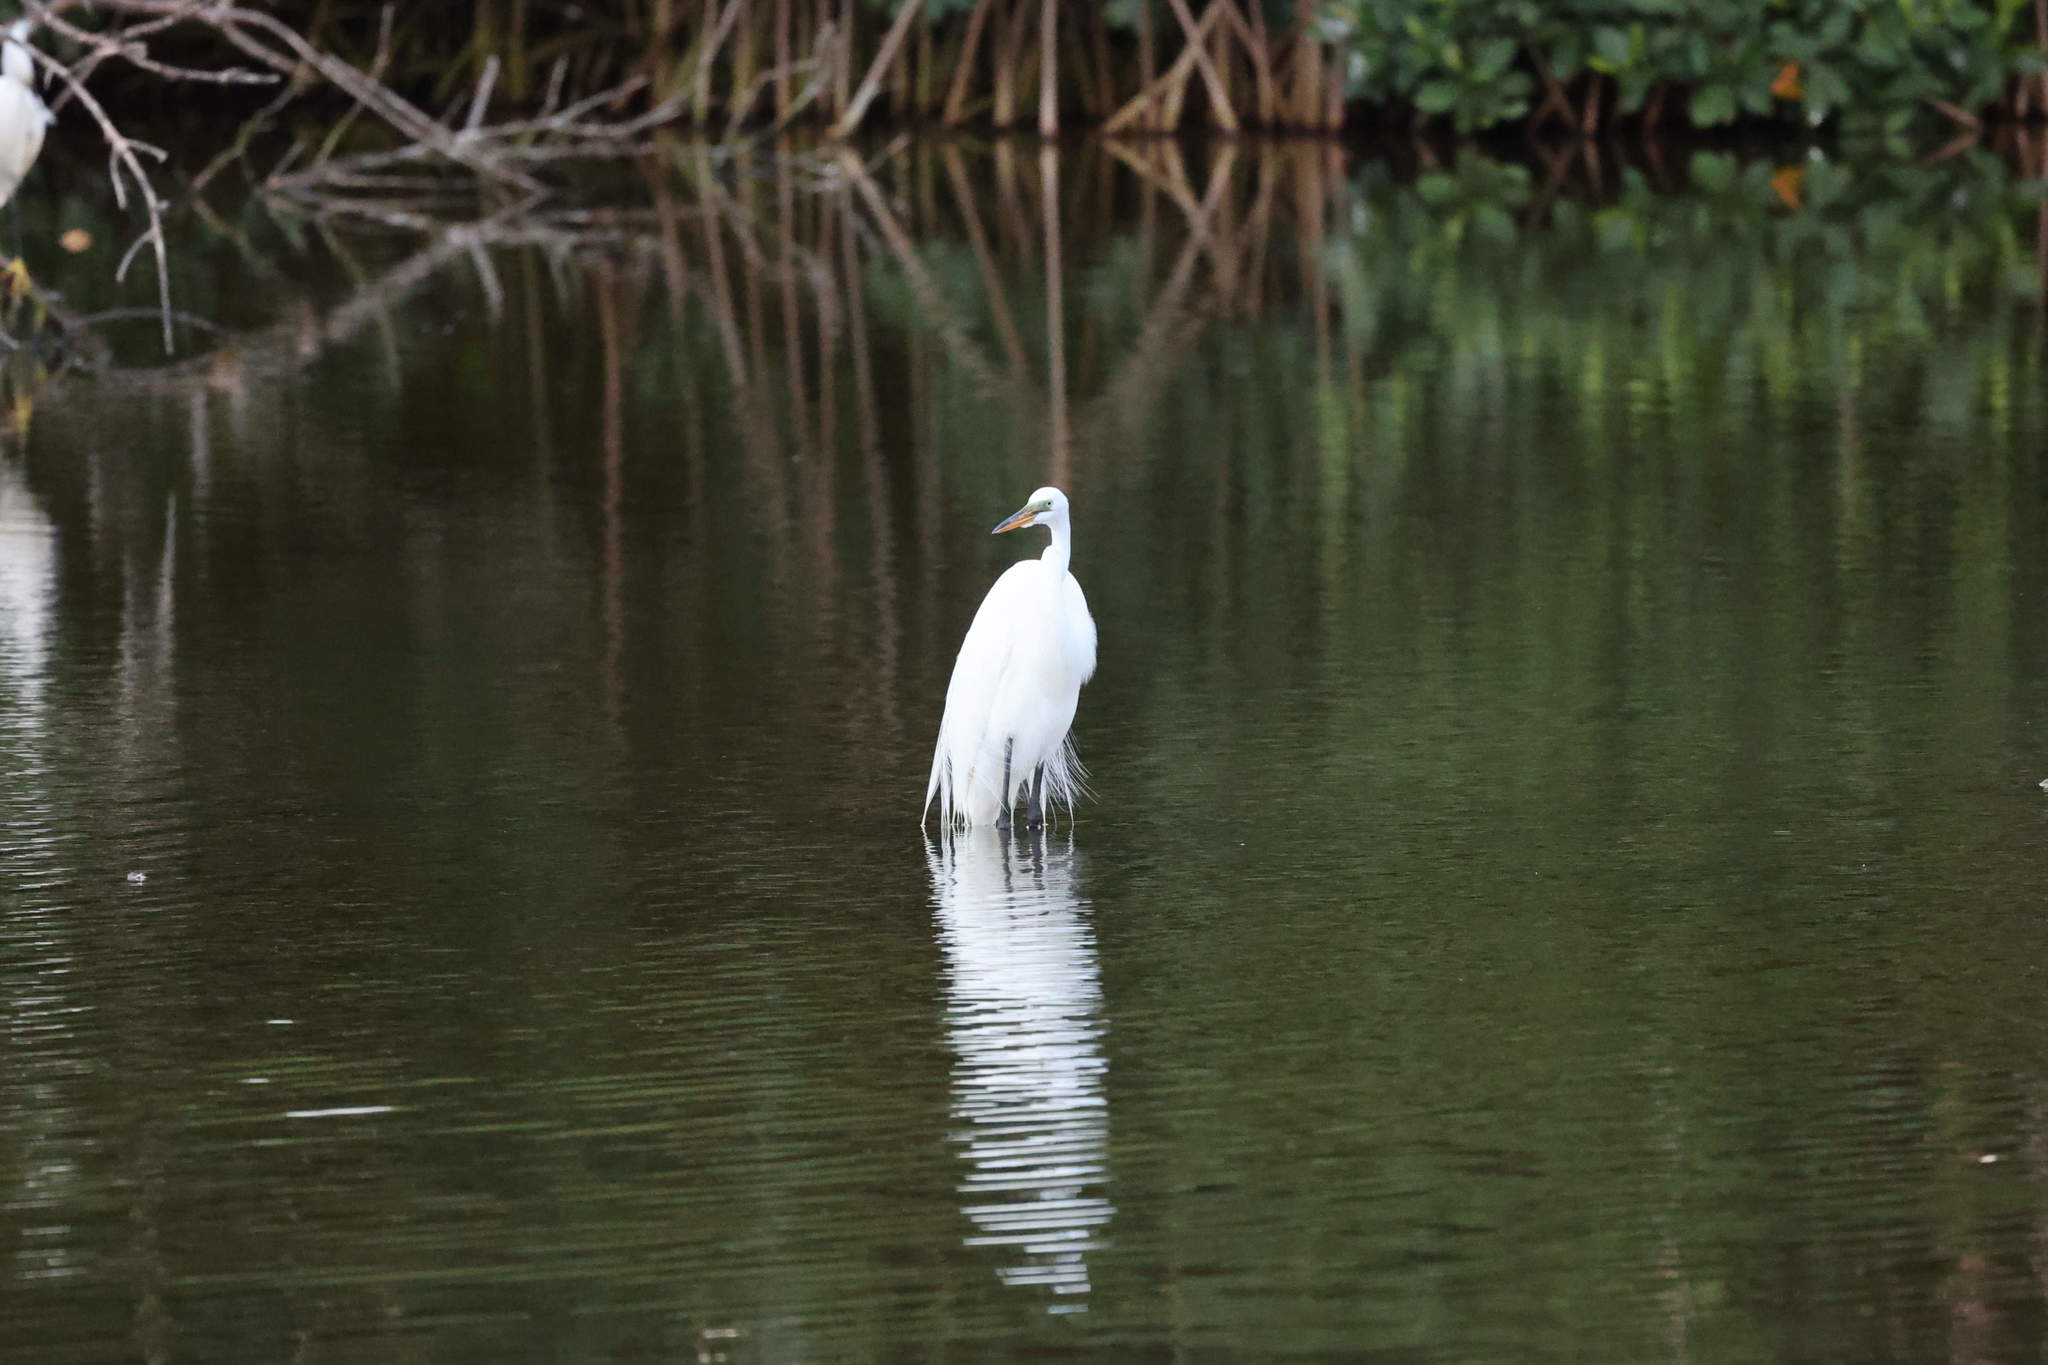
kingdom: Animalia
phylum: Chordata
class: Aves
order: Pelecaniformes
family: Ardeidae
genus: Ardea
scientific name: Ardea alba
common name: Great egret
